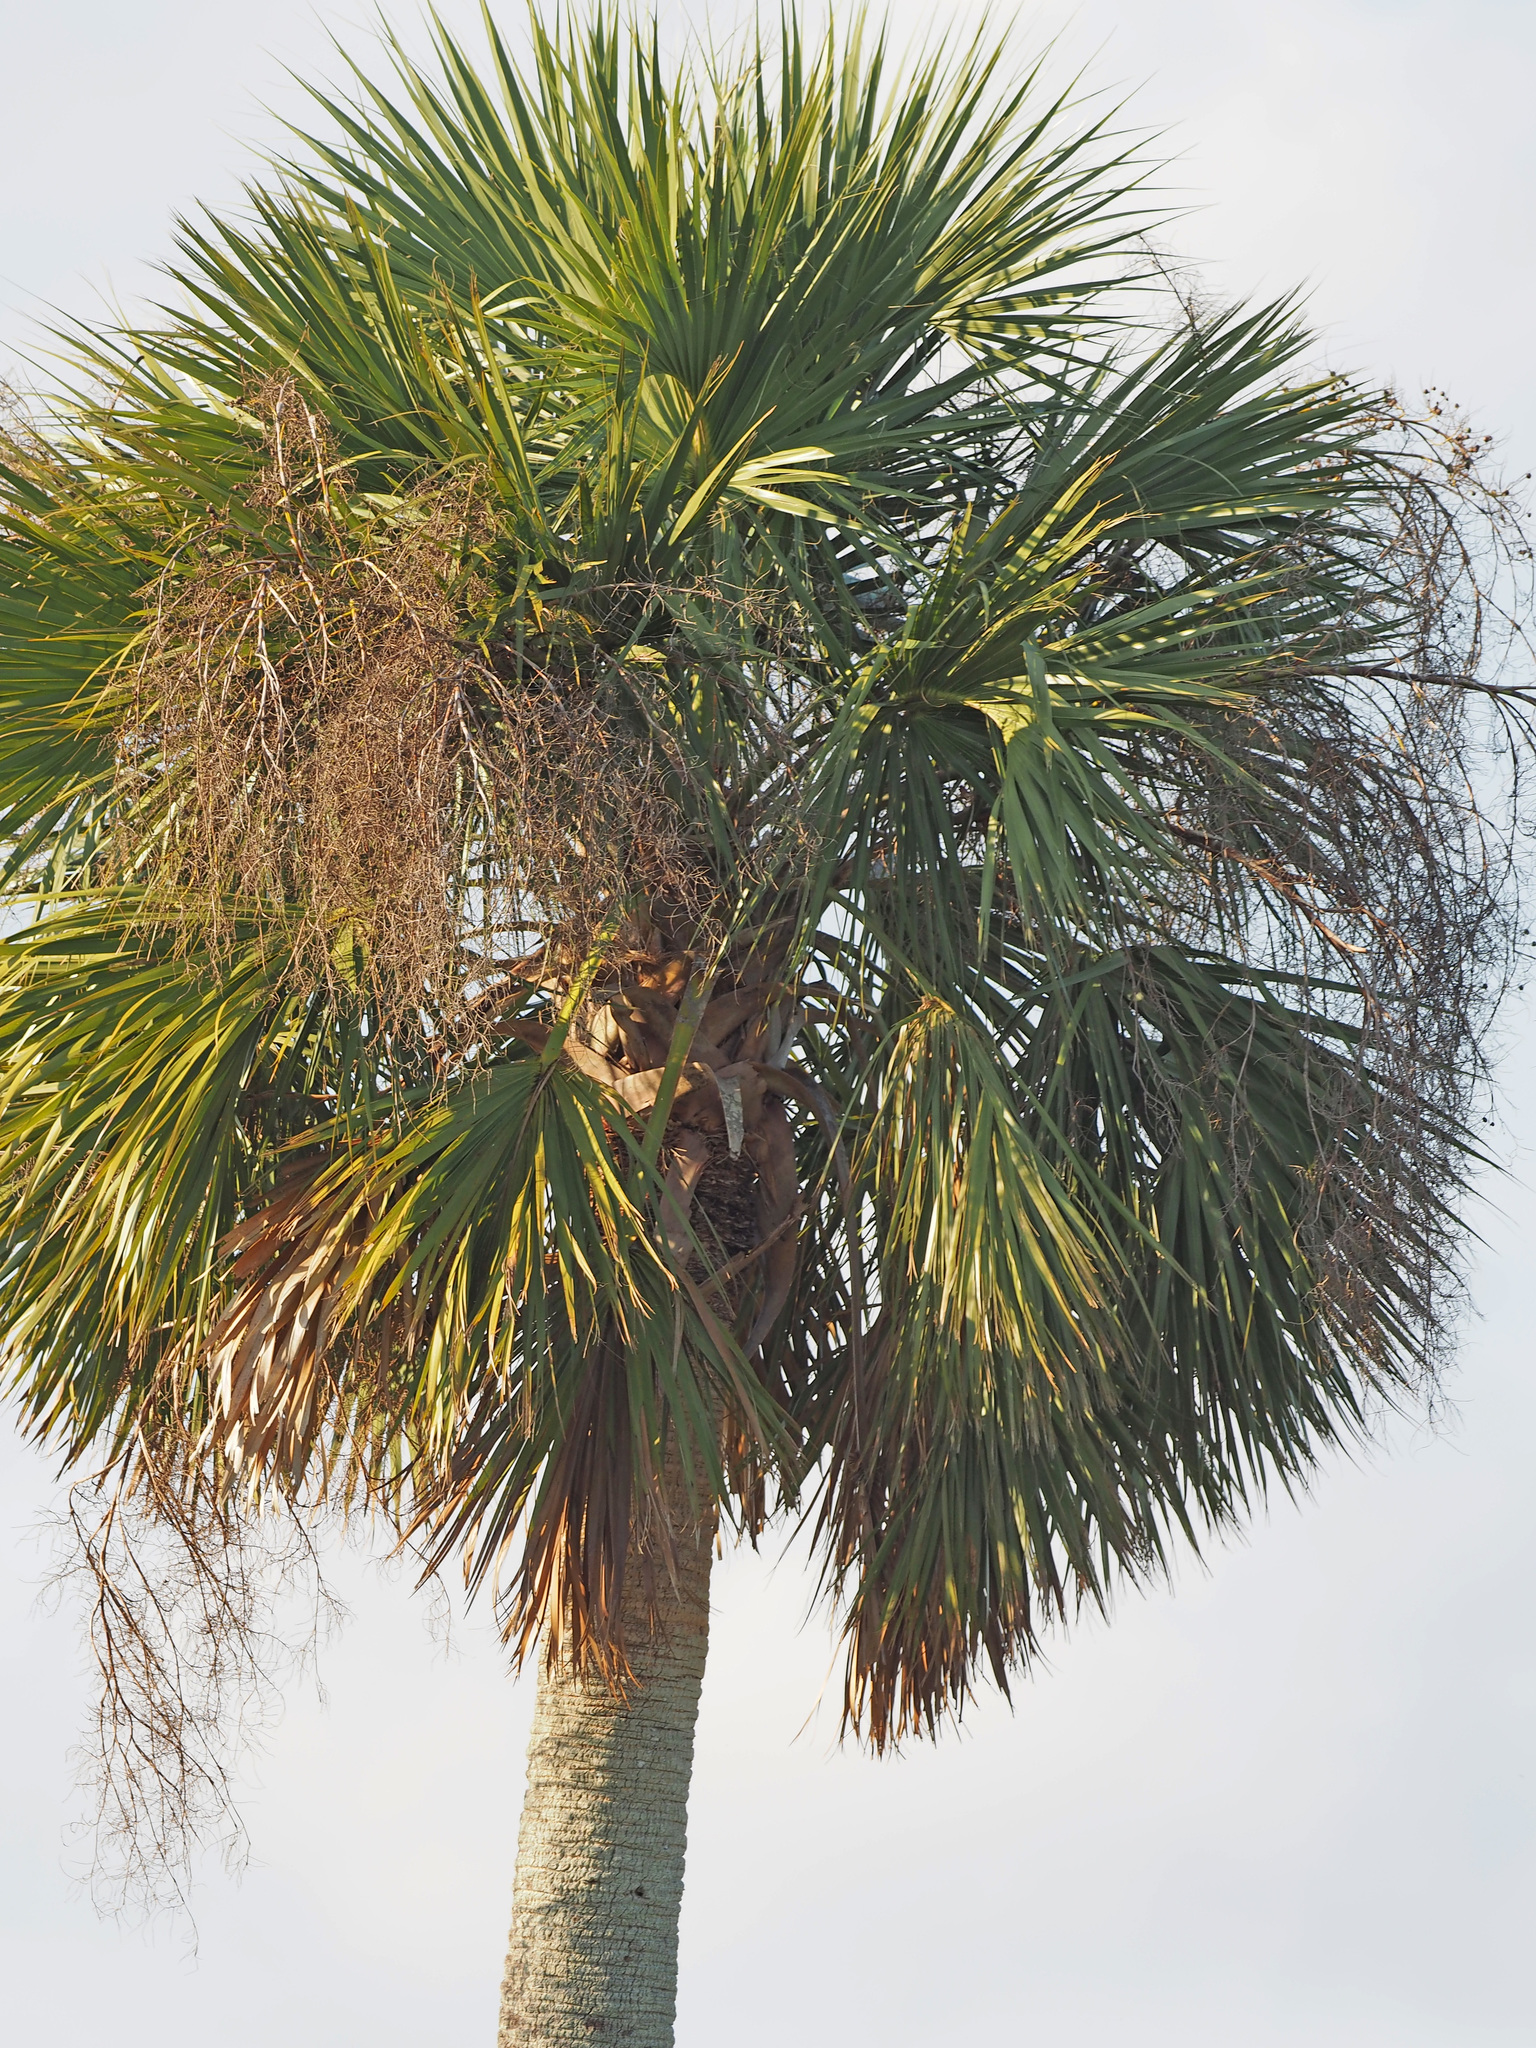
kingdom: Plantae
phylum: Tracheophyta
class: Liliopsida
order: Arecales
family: Arecaceae
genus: Sabal
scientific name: Sabal palmetto
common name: Blue palmetto
